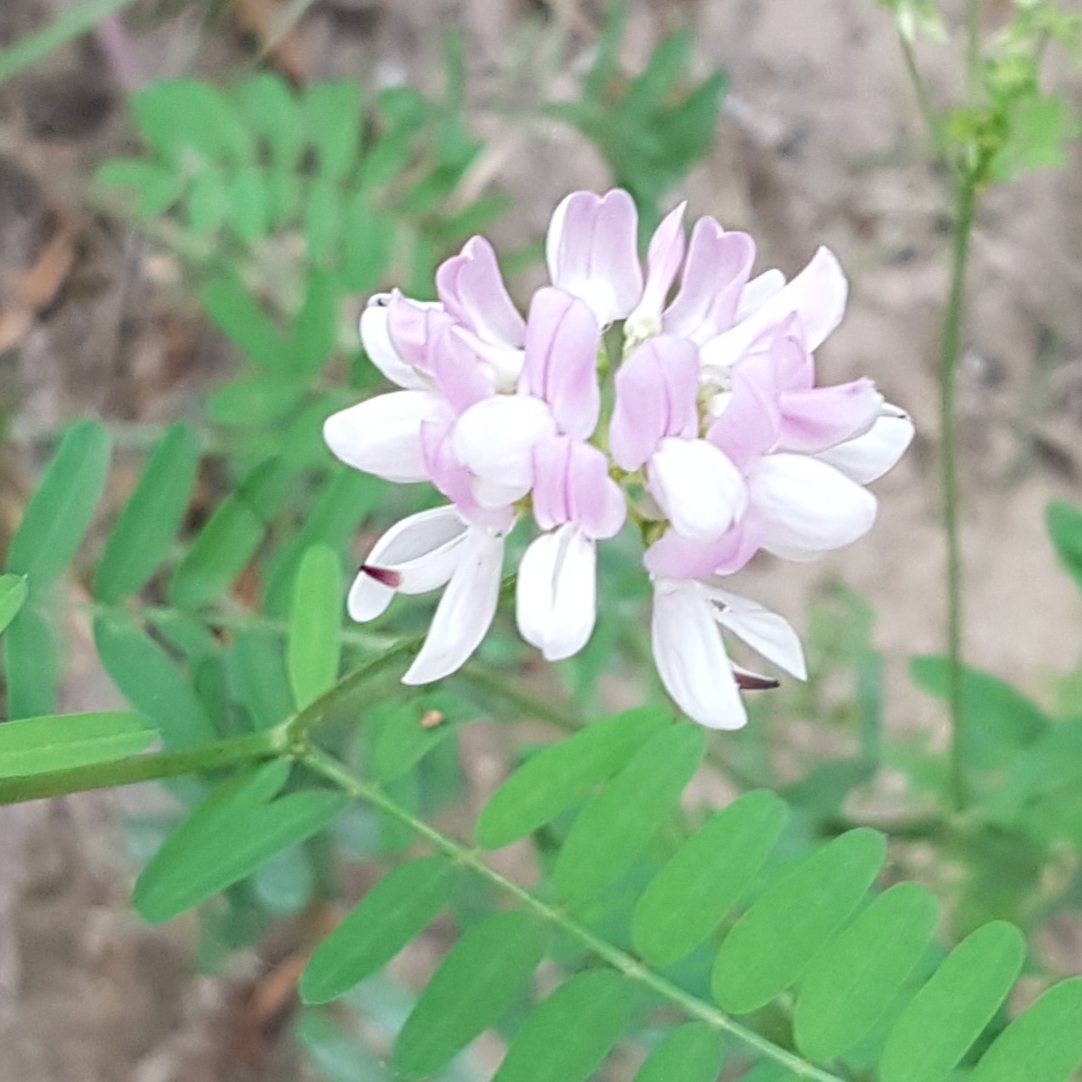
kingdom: Plantae
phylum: Tracheophyta
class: Magnoliopsida
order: Fabales
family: Fabaceae
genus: Coronilla
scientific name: Coronilla varia
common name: Crownvetch
